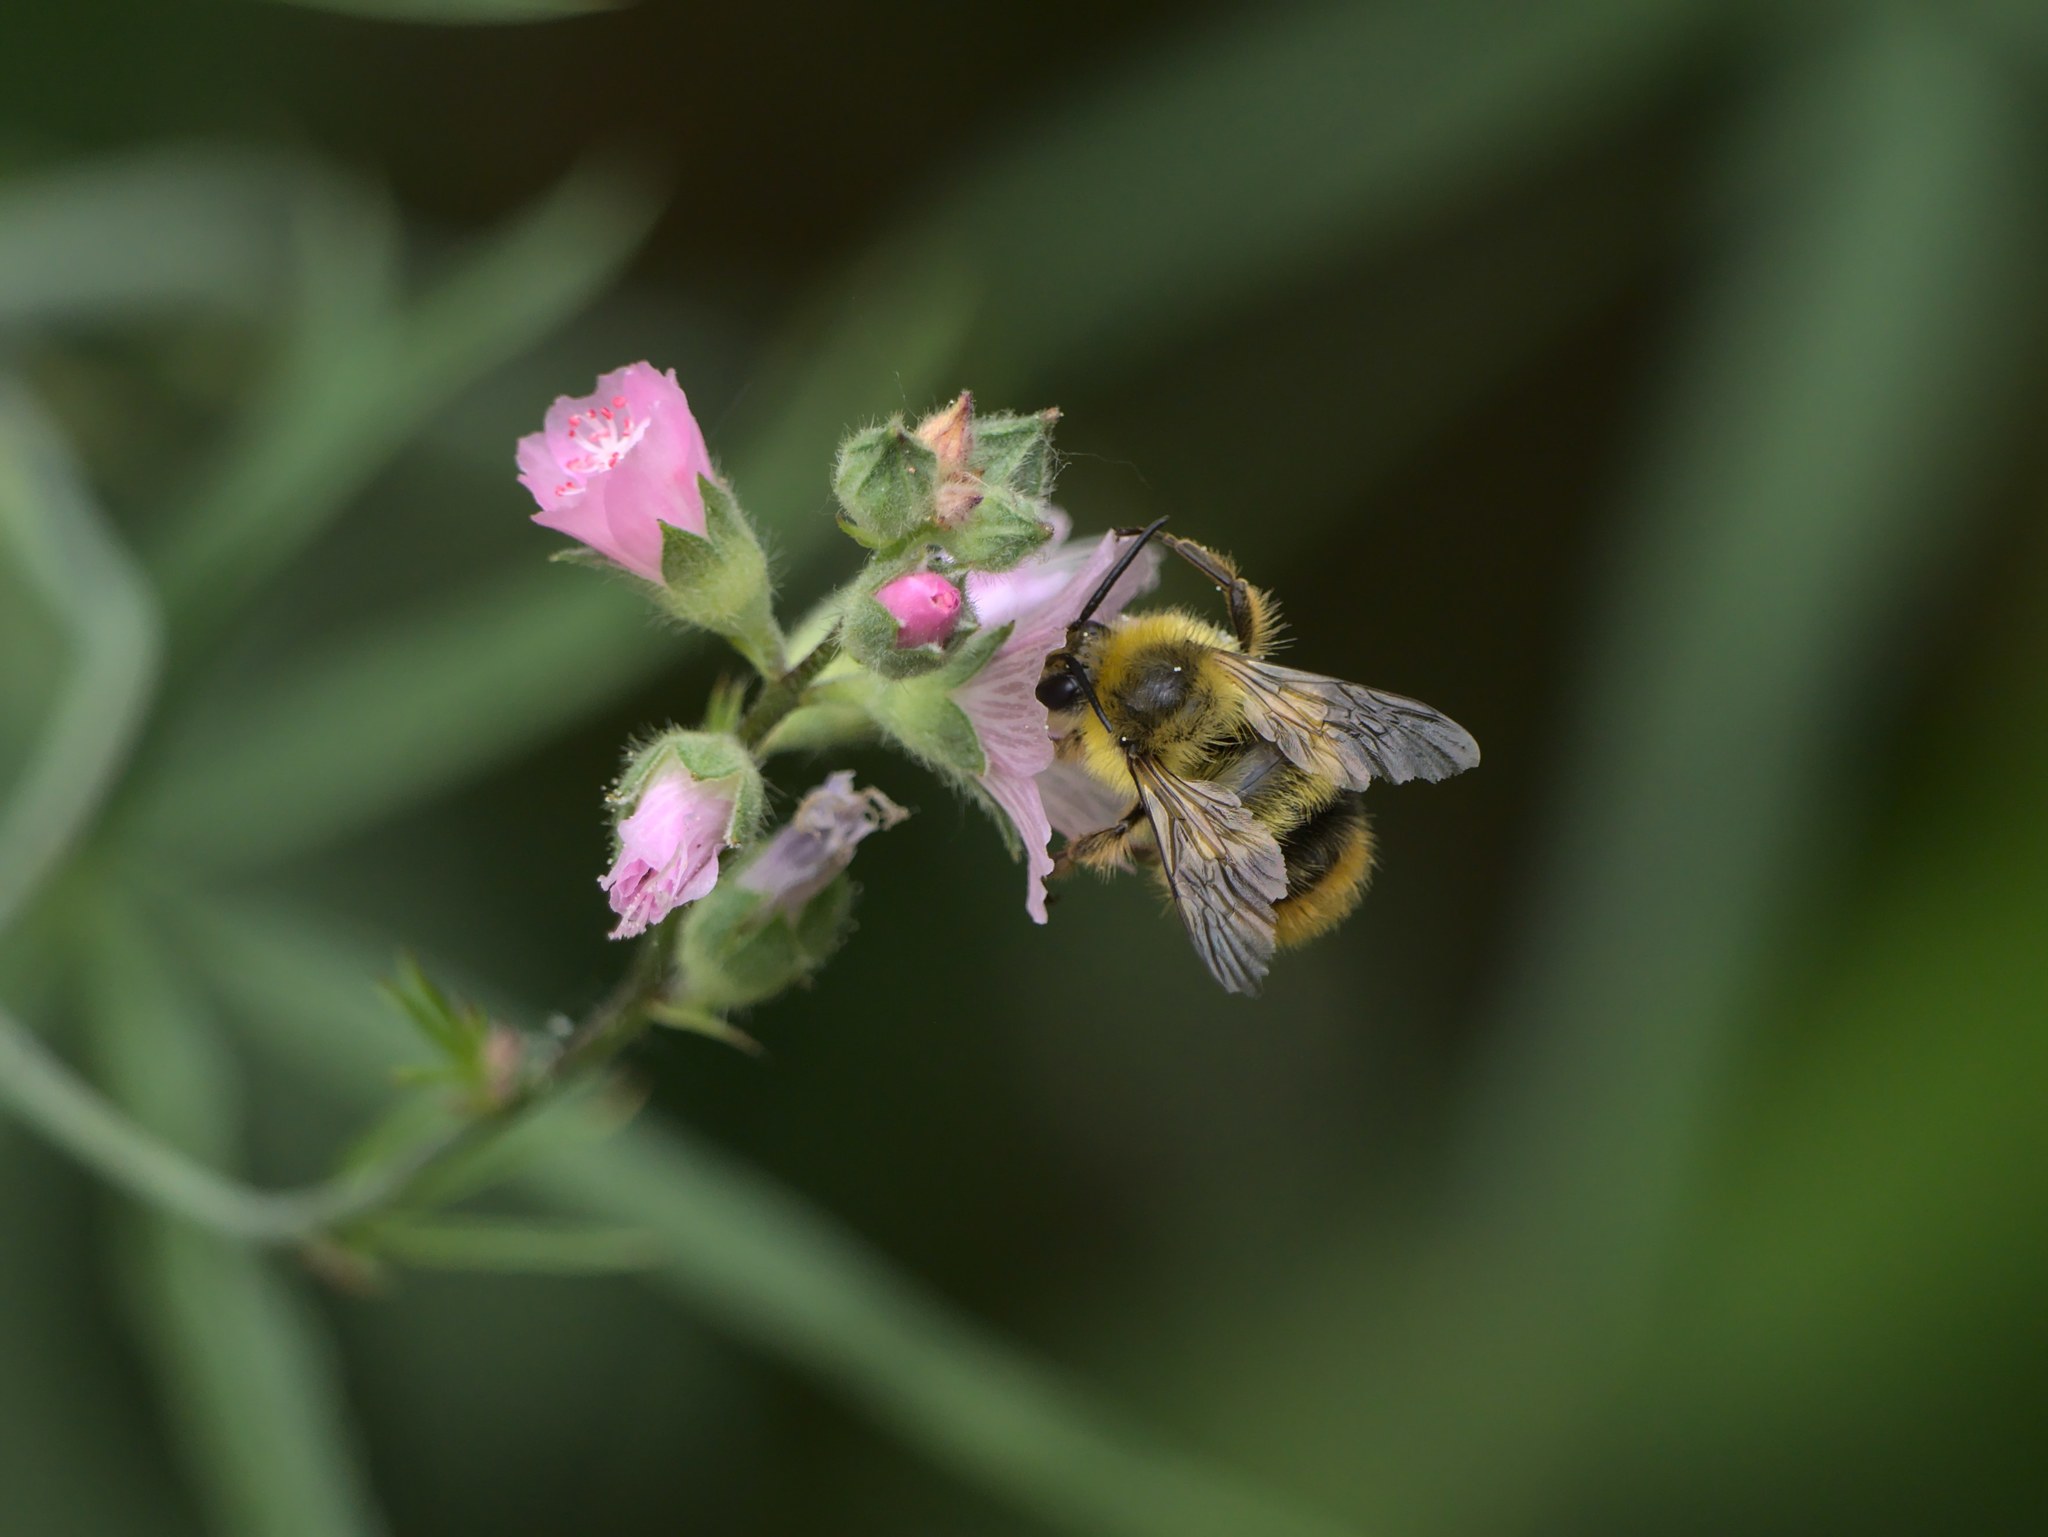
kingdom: Animalia
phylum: Arthropoda
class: Insecta
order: Hymenoptera
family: Apidae
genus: Bombus
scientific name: Bombus mixtus
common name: Fuzzy-horned bumble bee
